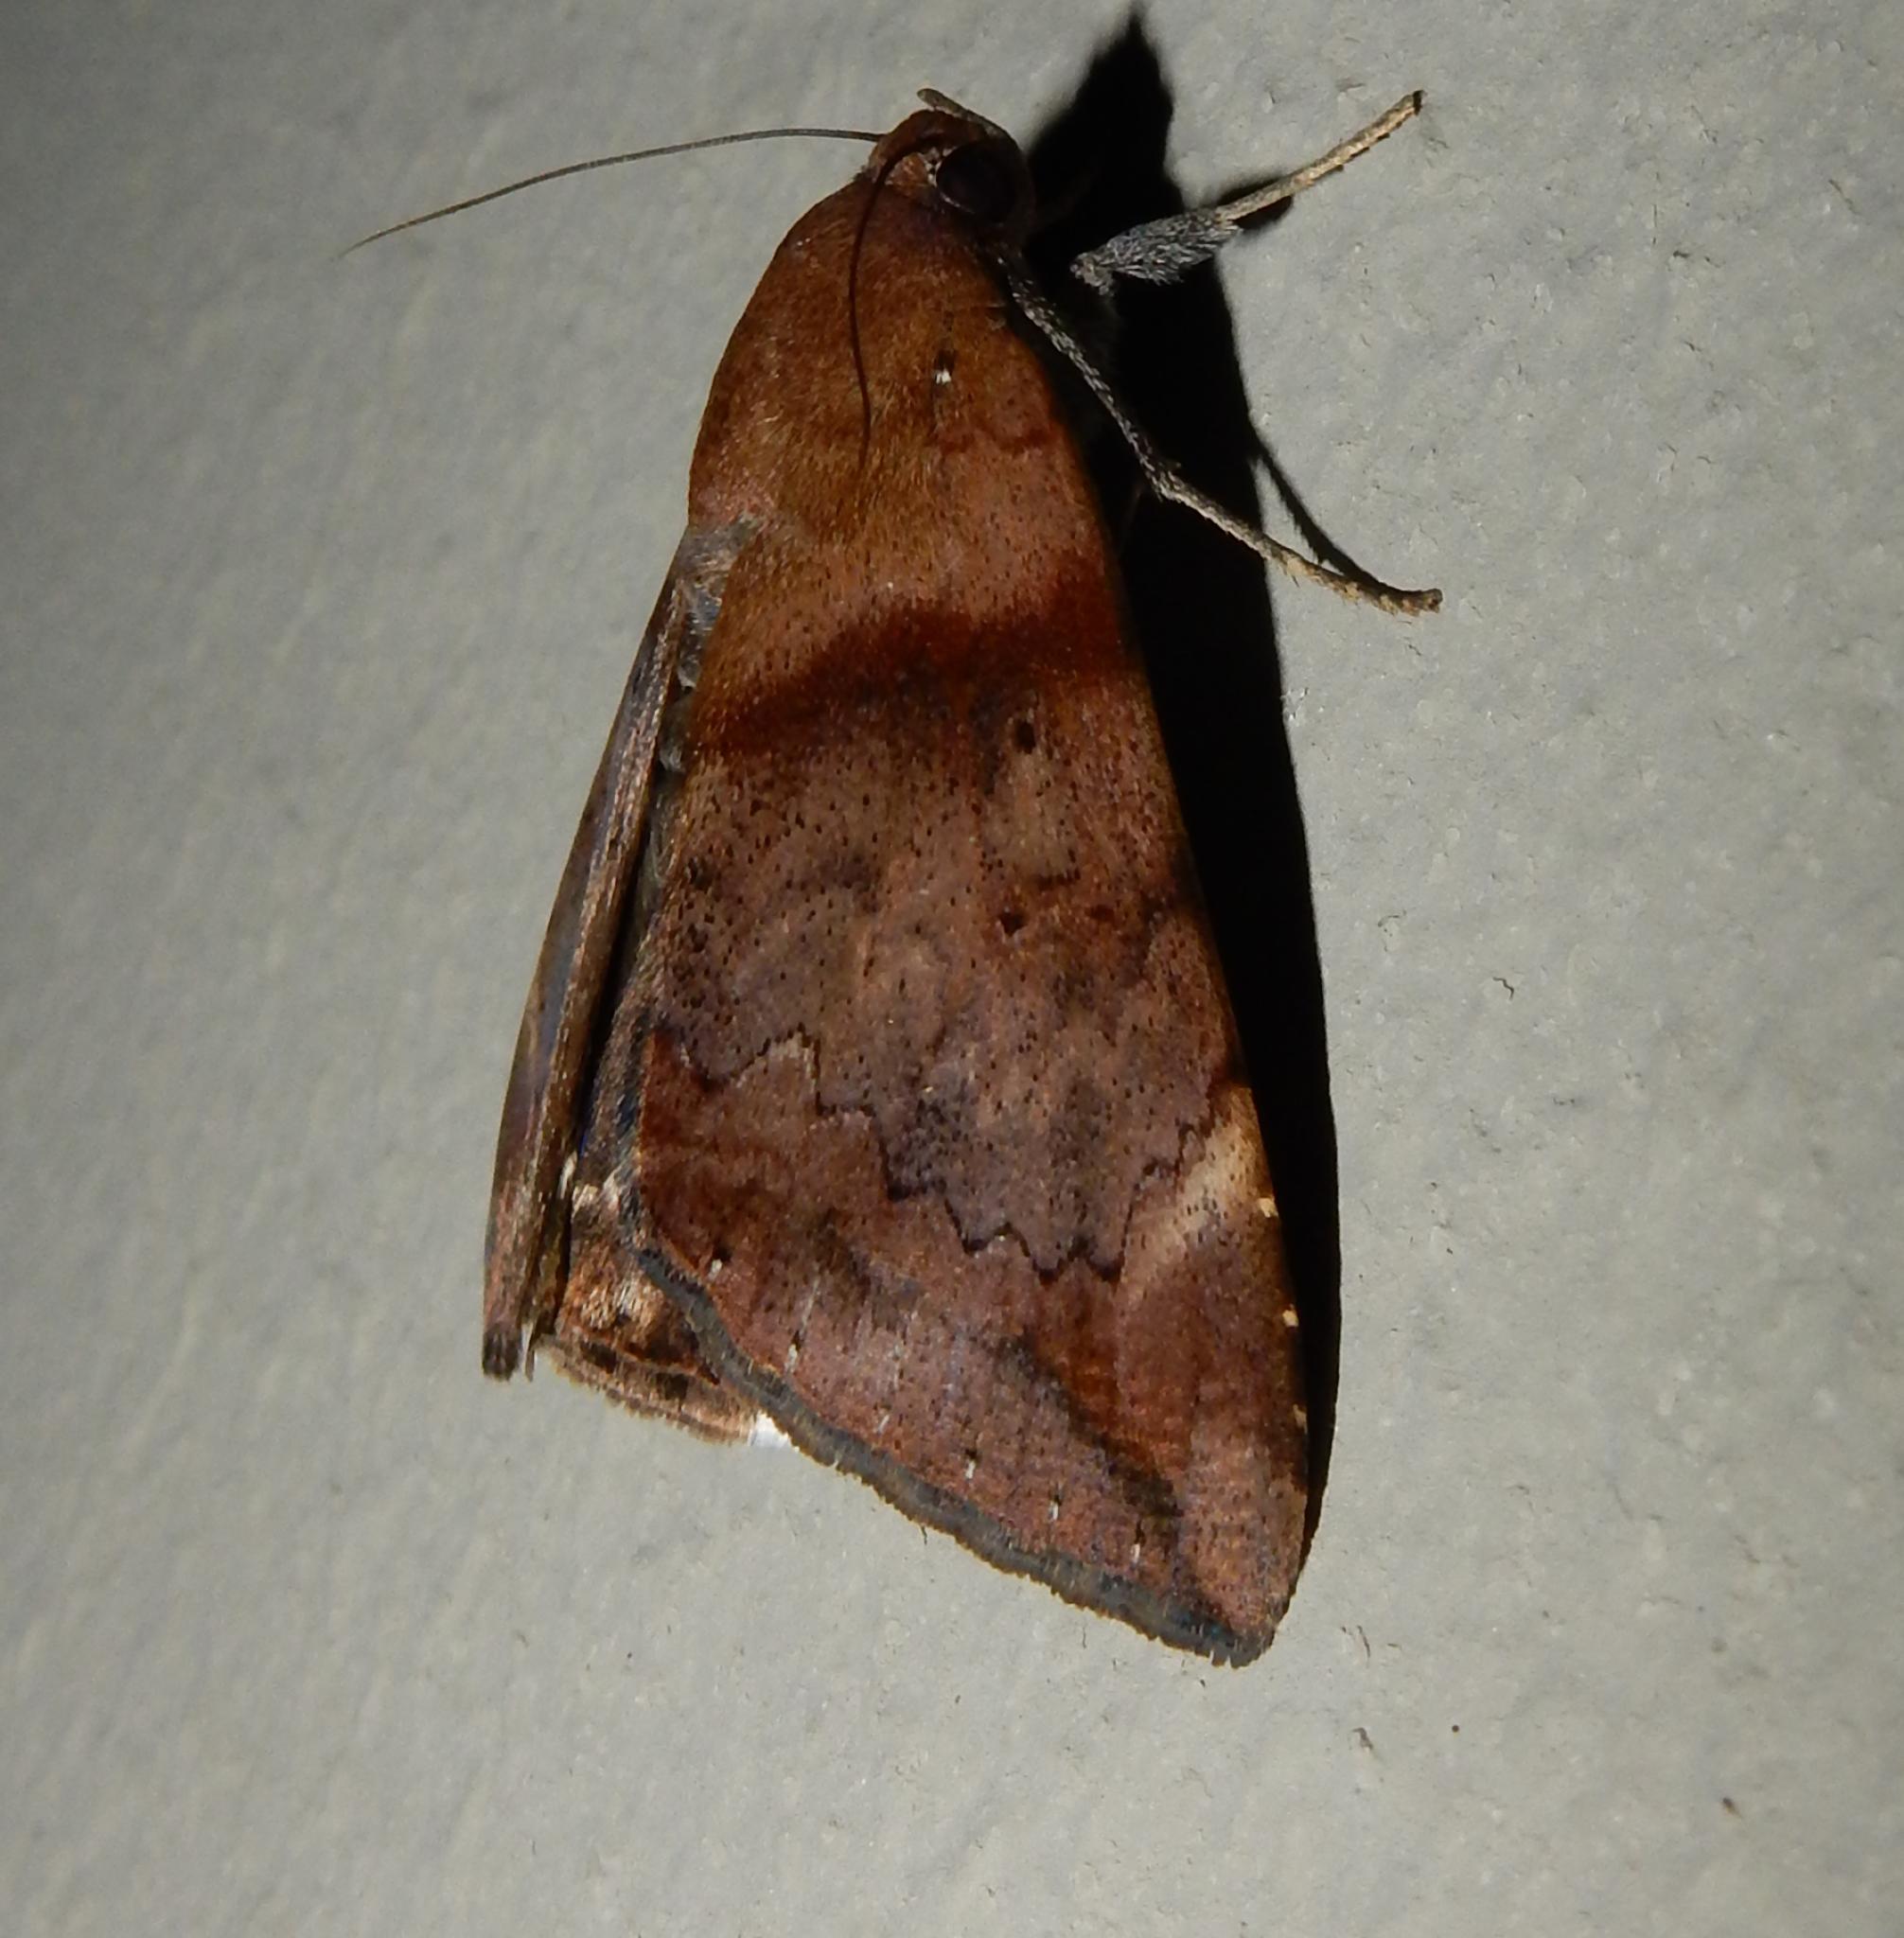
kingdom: Animalia
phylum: Arthropoda
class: Insecta
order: Lepidoptera
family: Erebidae
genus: Achaea
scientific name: Achaea lienardi
